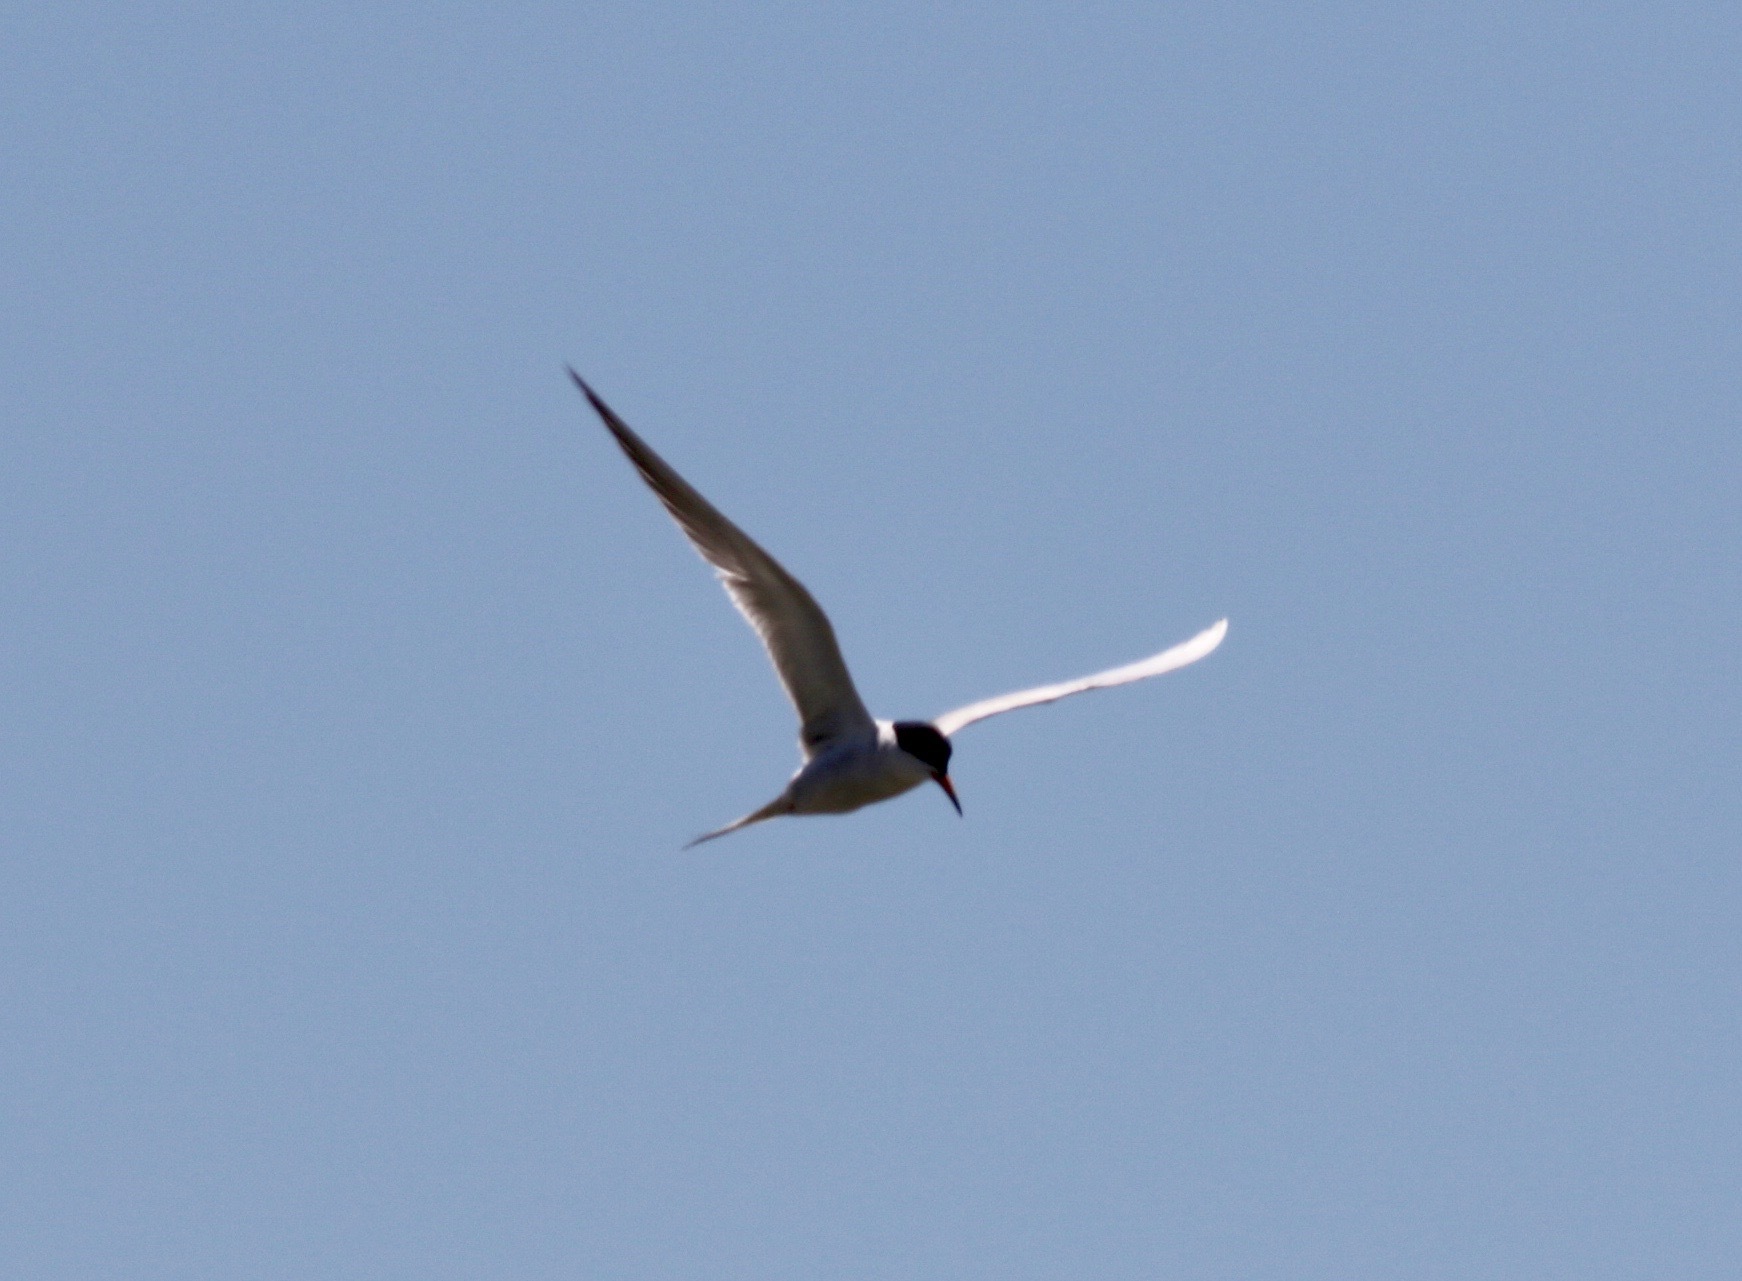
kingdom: Animalia
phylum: Chordata
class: Aves
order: Charadriiformes
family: Laridae
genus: Sterna
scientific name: Sterna forsteri
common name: Forster's tern
